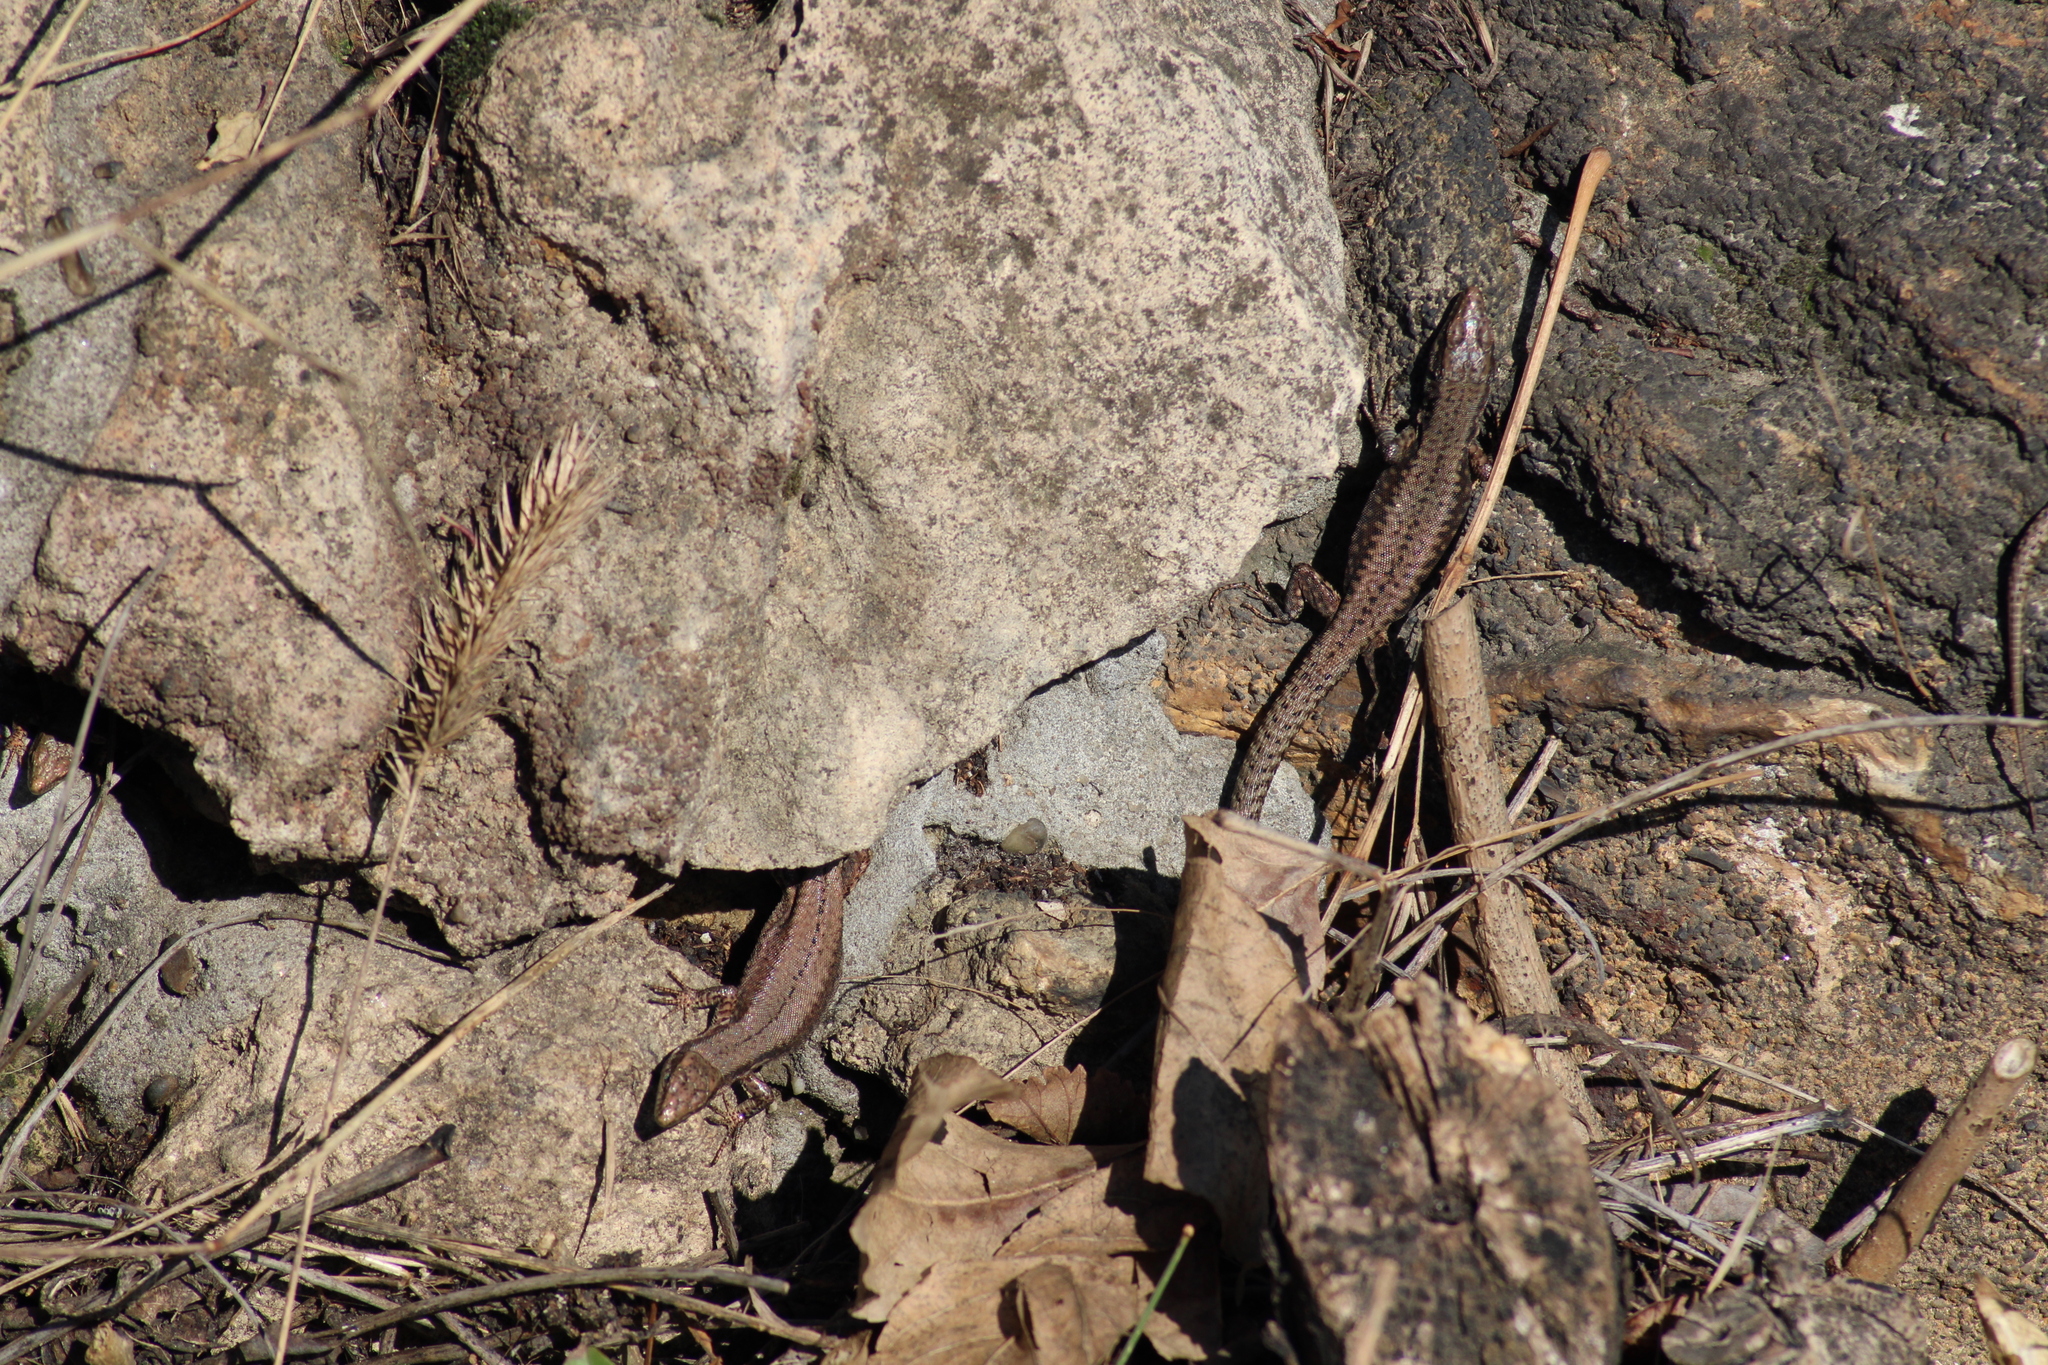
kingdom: Animalia
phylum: Chordata
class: Squamata
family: Lacertidae
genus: Podarcis
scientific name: Podarcis muralis
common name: Common wall lizard
